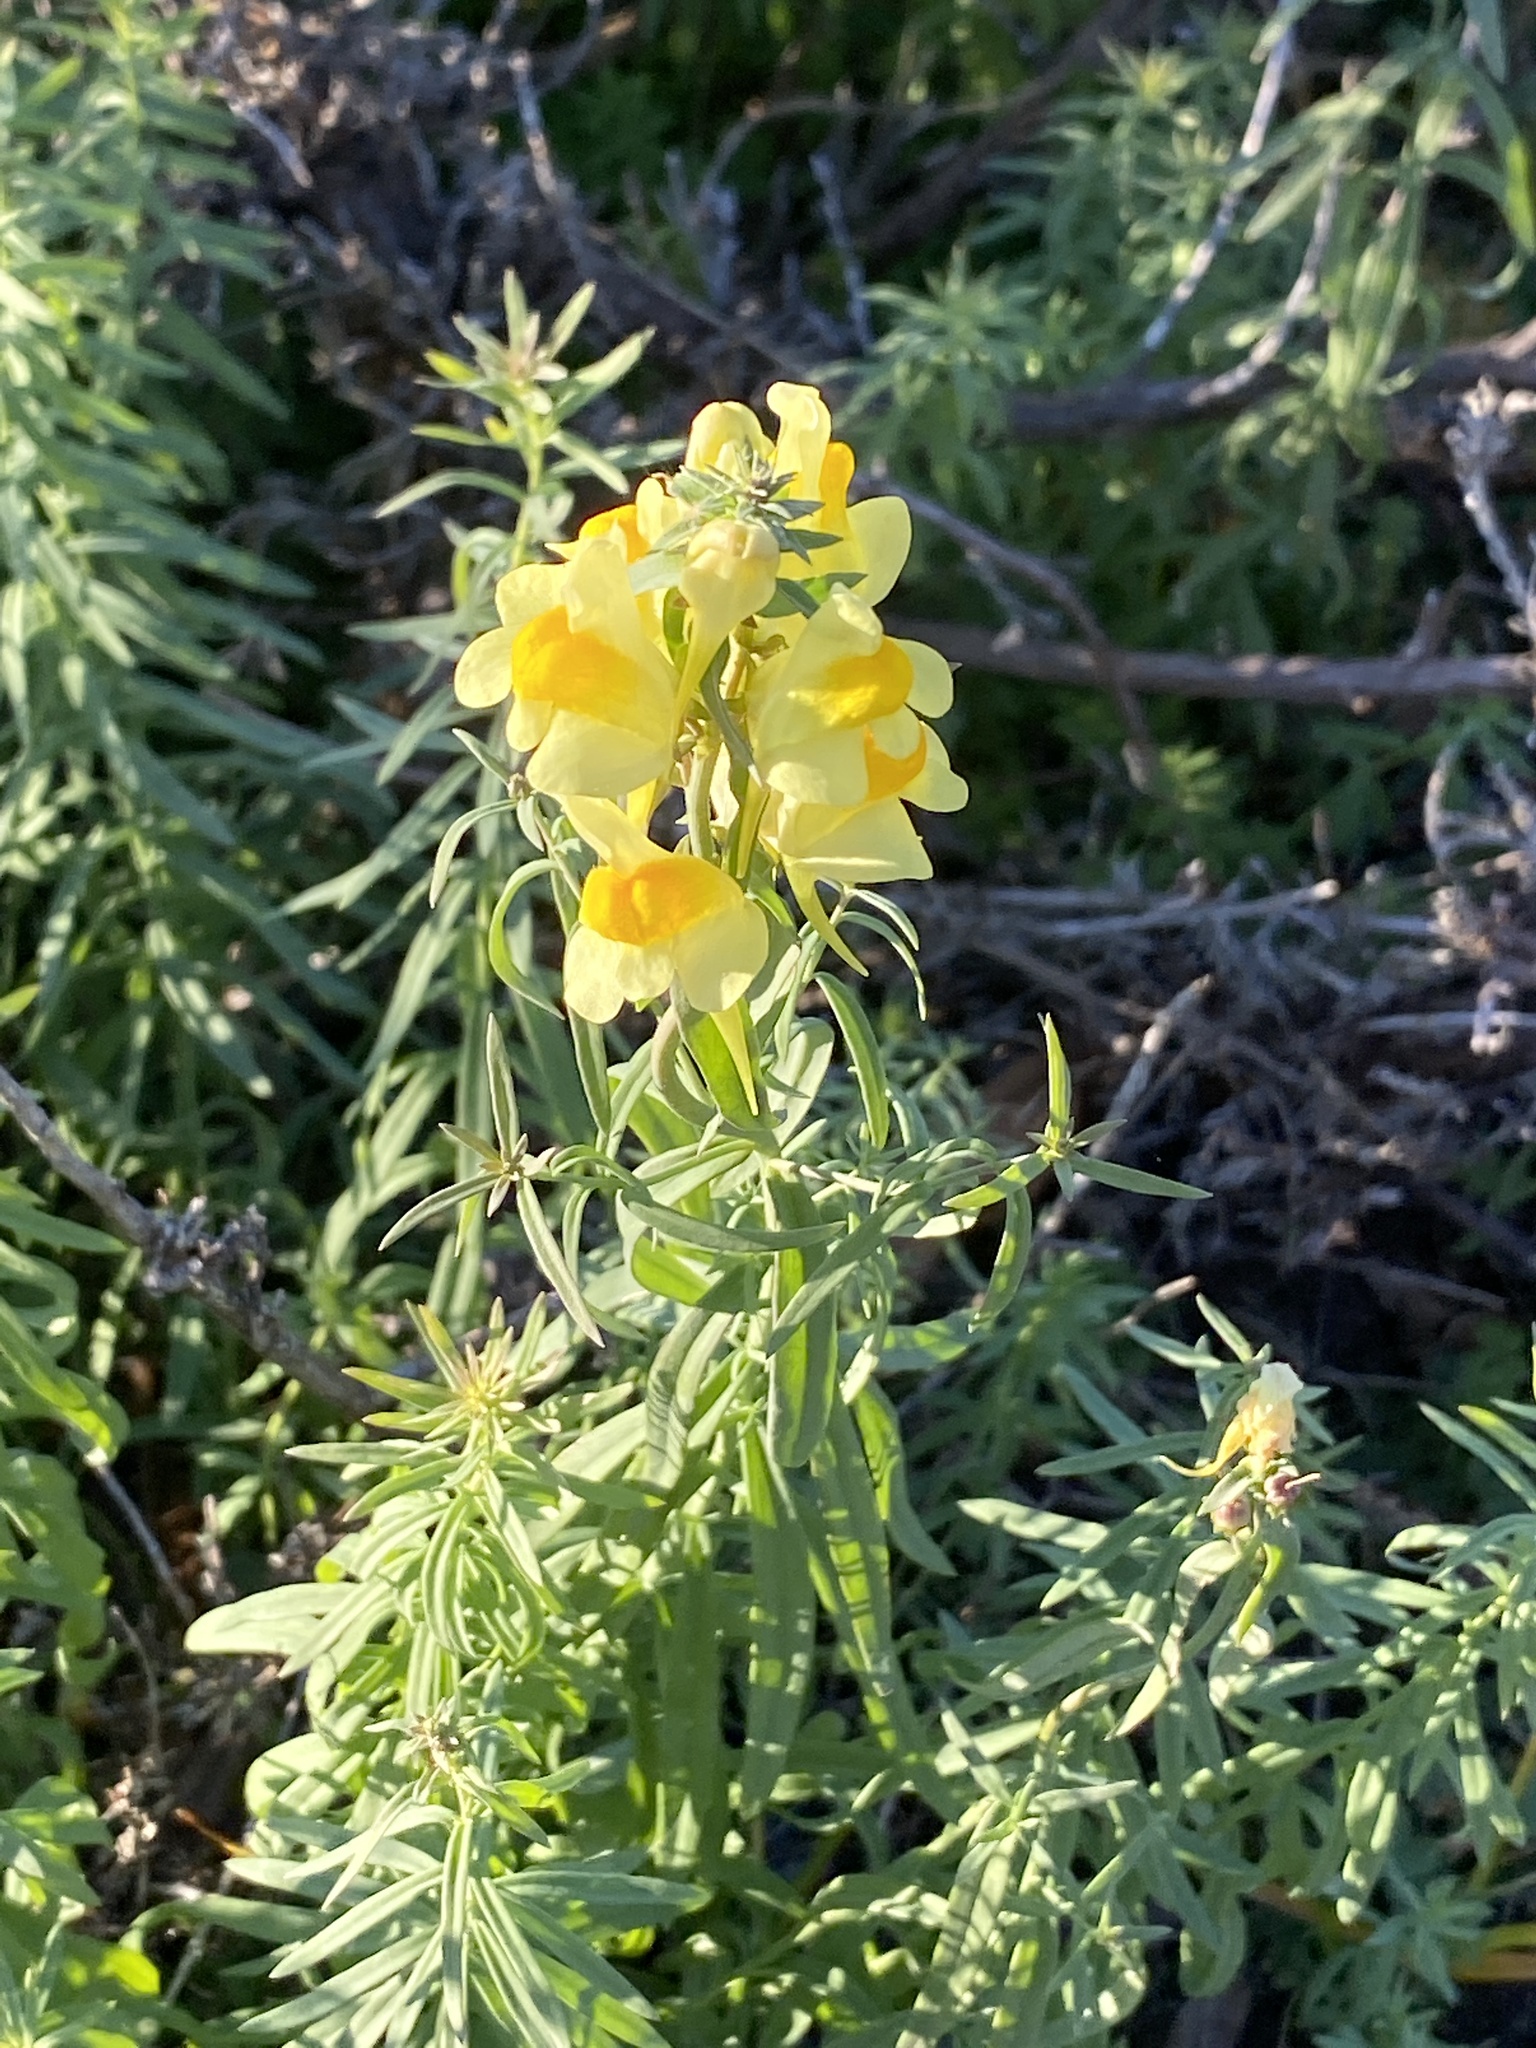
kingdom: Plantae
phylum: Tracheophyta
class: Magnoliopsida
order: Lamiales
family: Plantaginaceae
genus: Linaria
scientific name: Linaria vulgaris
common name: Butter and eggs
